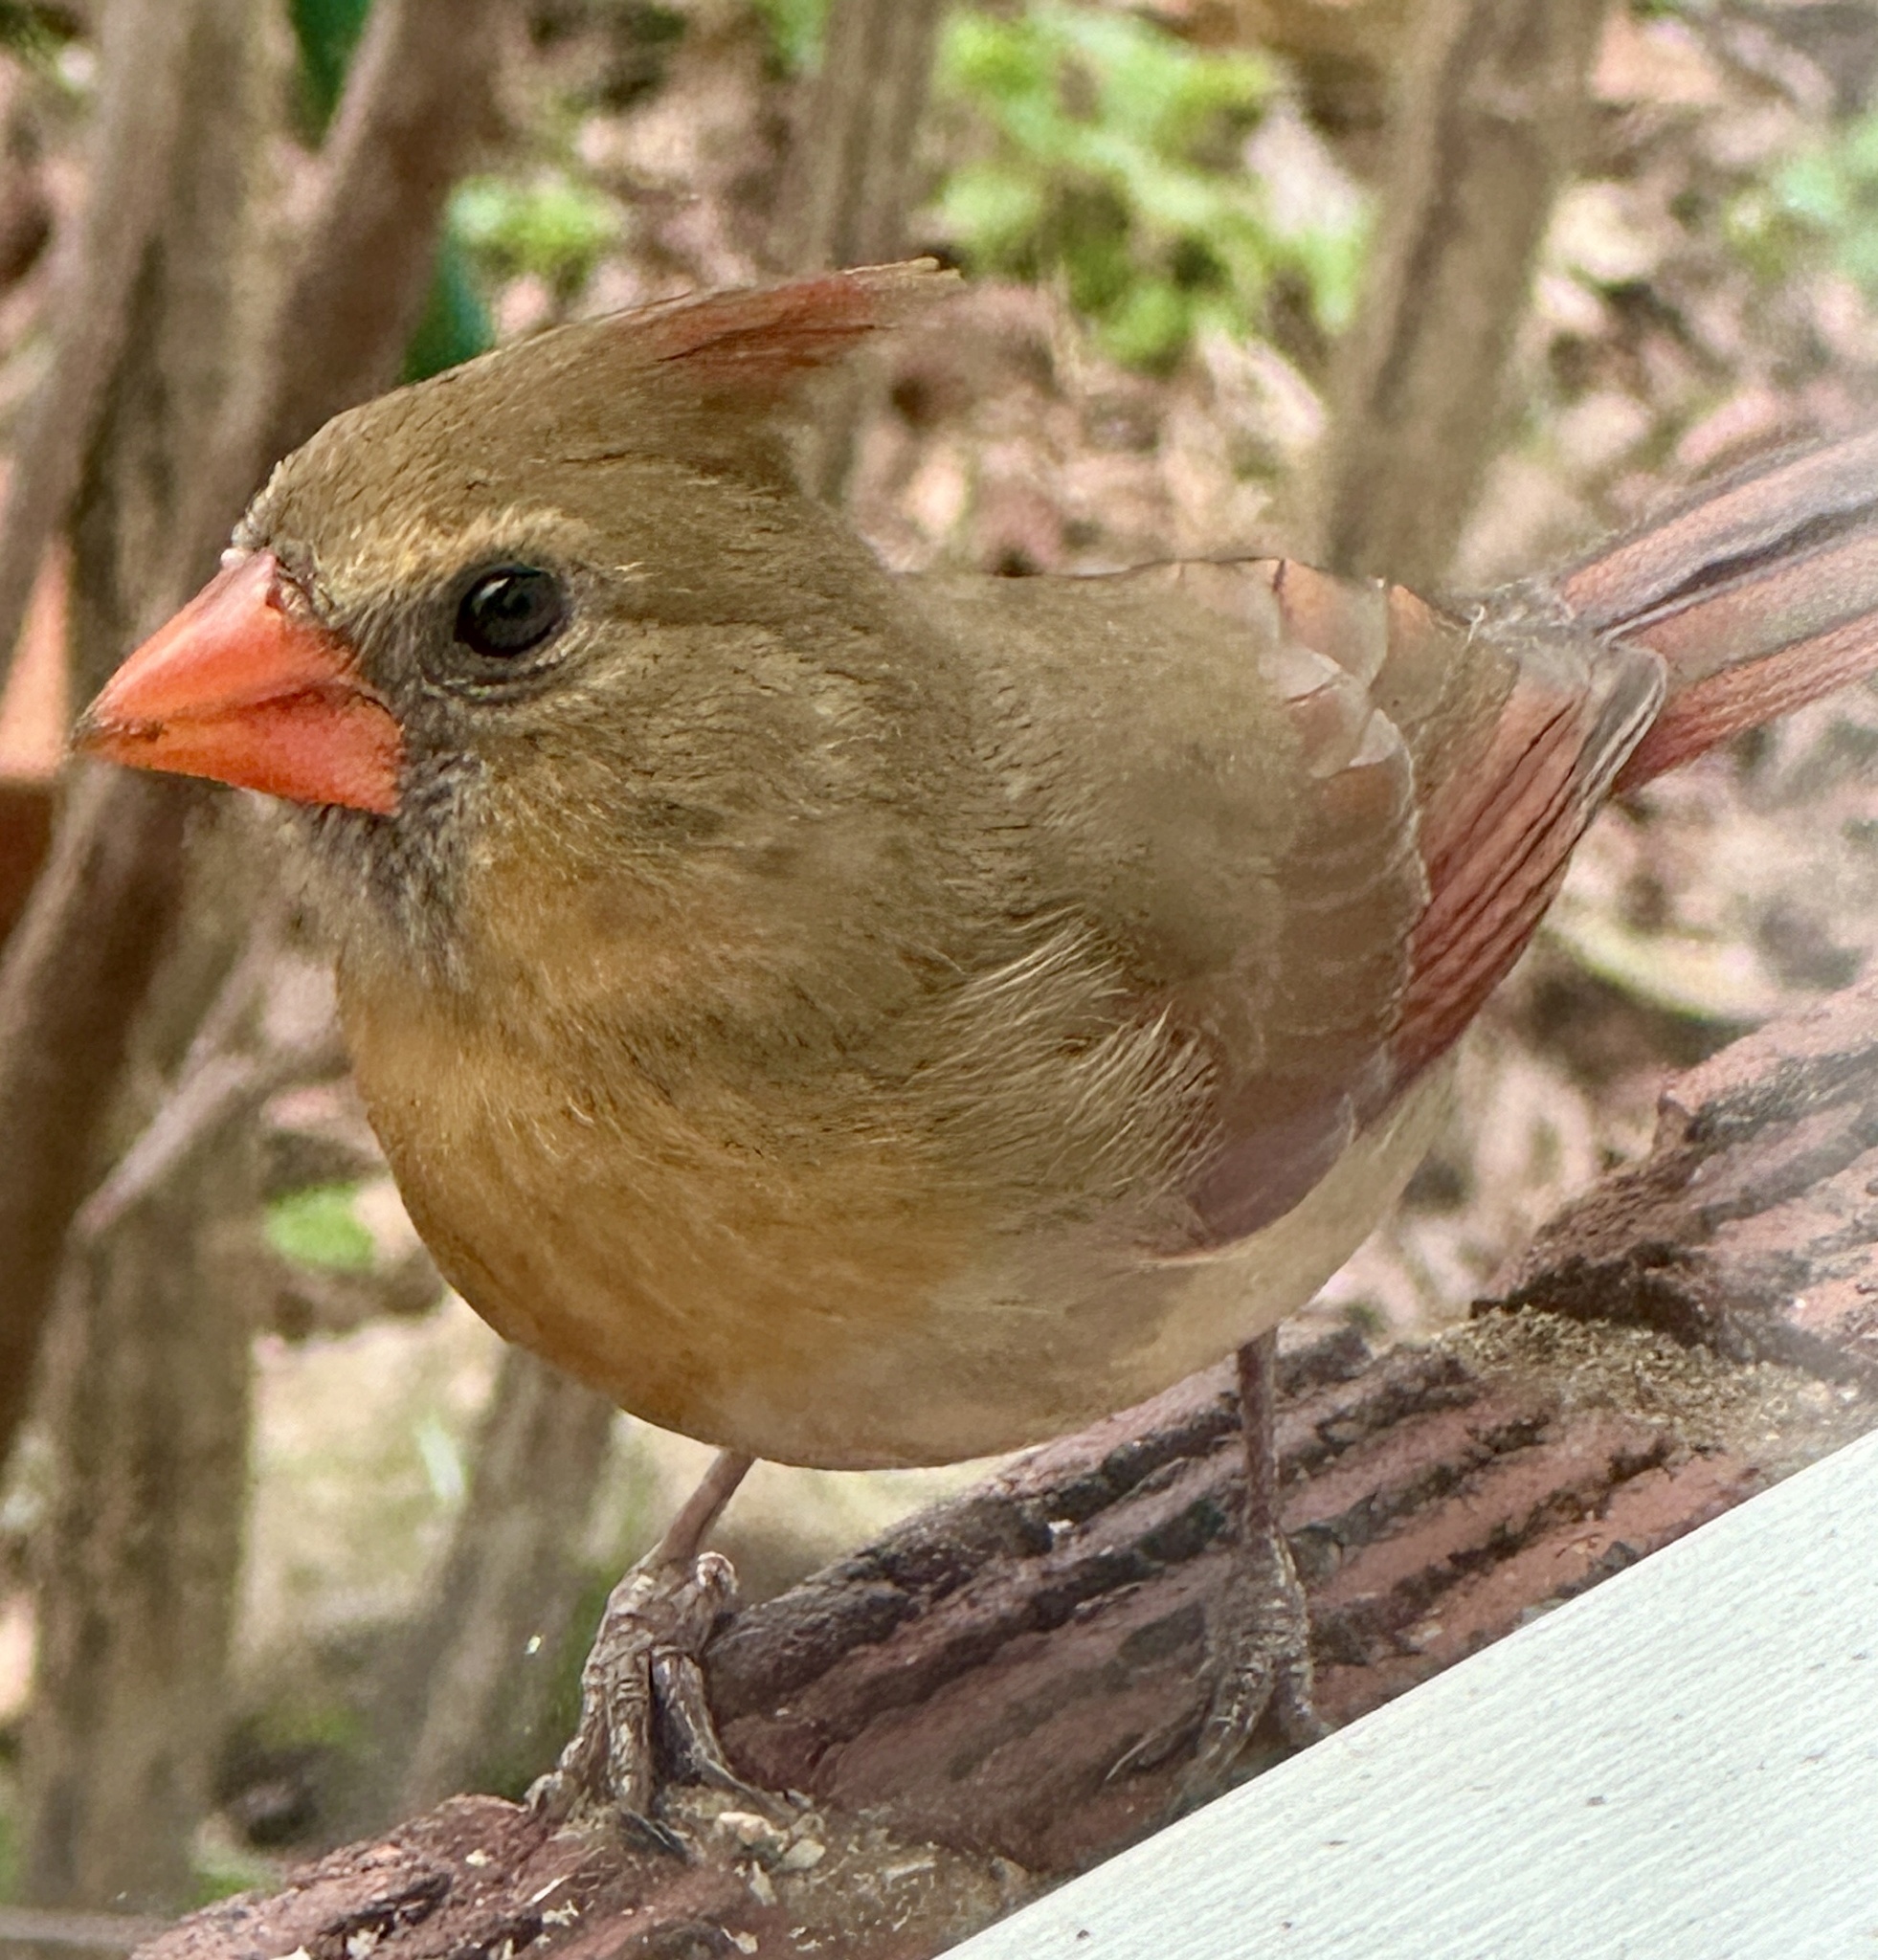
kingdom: Animalia
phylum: Chordata
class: Aves
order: Passeriformes
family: Cardinalidae
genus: Cardinalis
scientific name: Cardinalis cardinalis
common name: Northern cardinal
